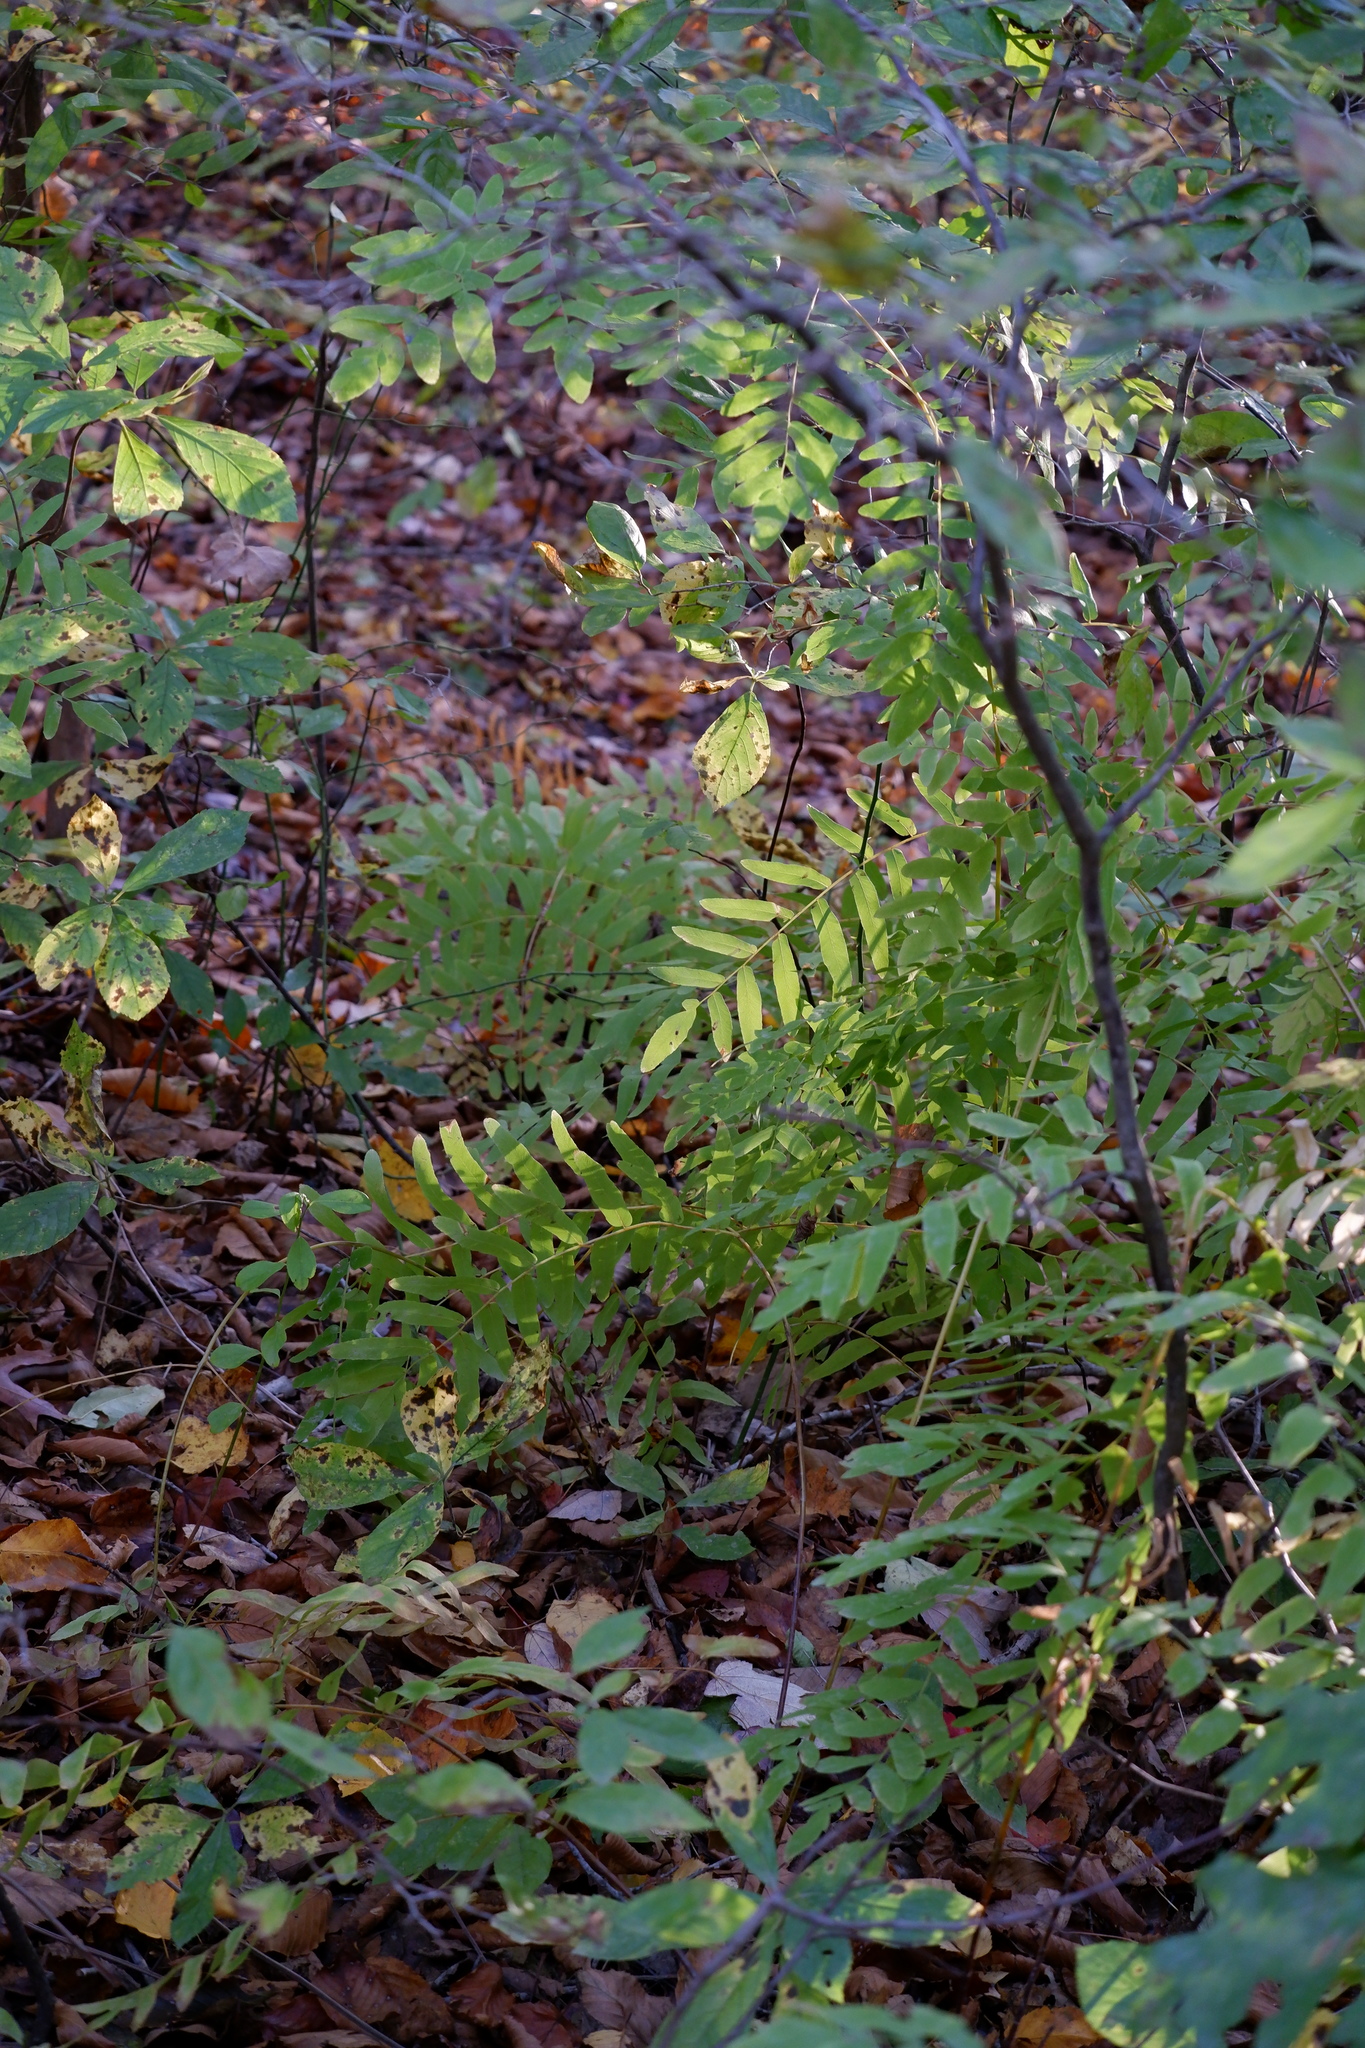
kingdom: Plantae
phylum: Tracheophyta
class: Polypodiopsida
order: Osmundales
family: Osmundaceae
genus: Osmunda
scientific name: Osmunda spectabilis
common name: American royal fern
